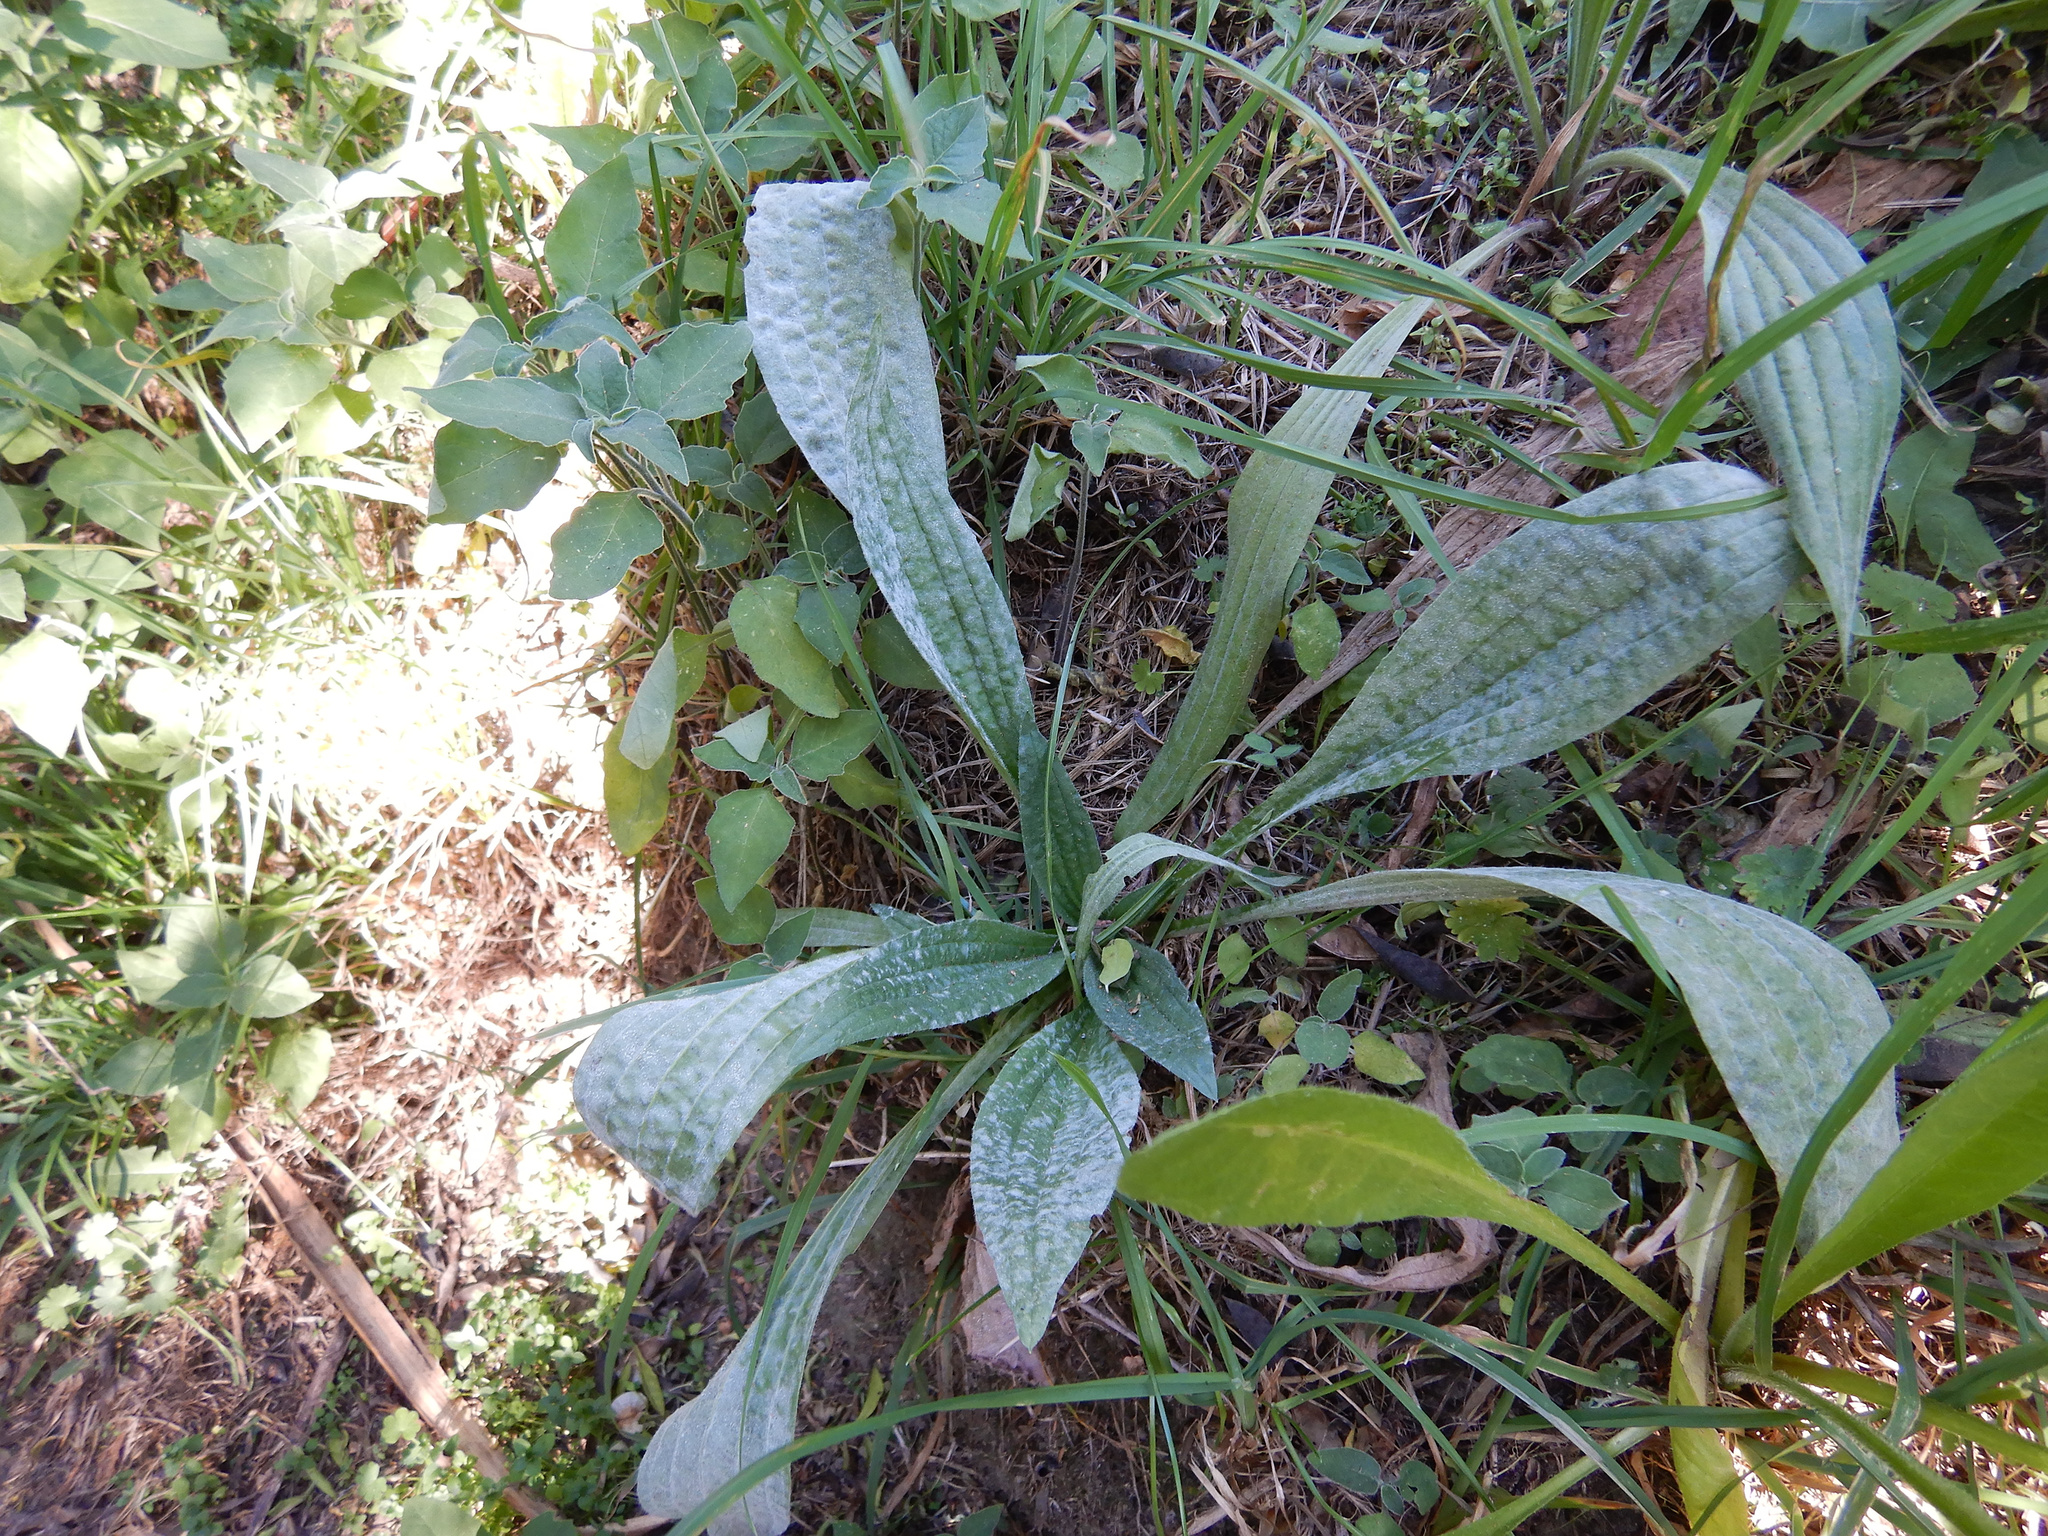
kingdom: Plantae
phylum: Tracheophyta
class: Magnoliopsida
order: Lamiales
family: Plantaginaceae
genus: Plantago
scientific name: Plantago lanceolata
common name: Ribwort plantain
